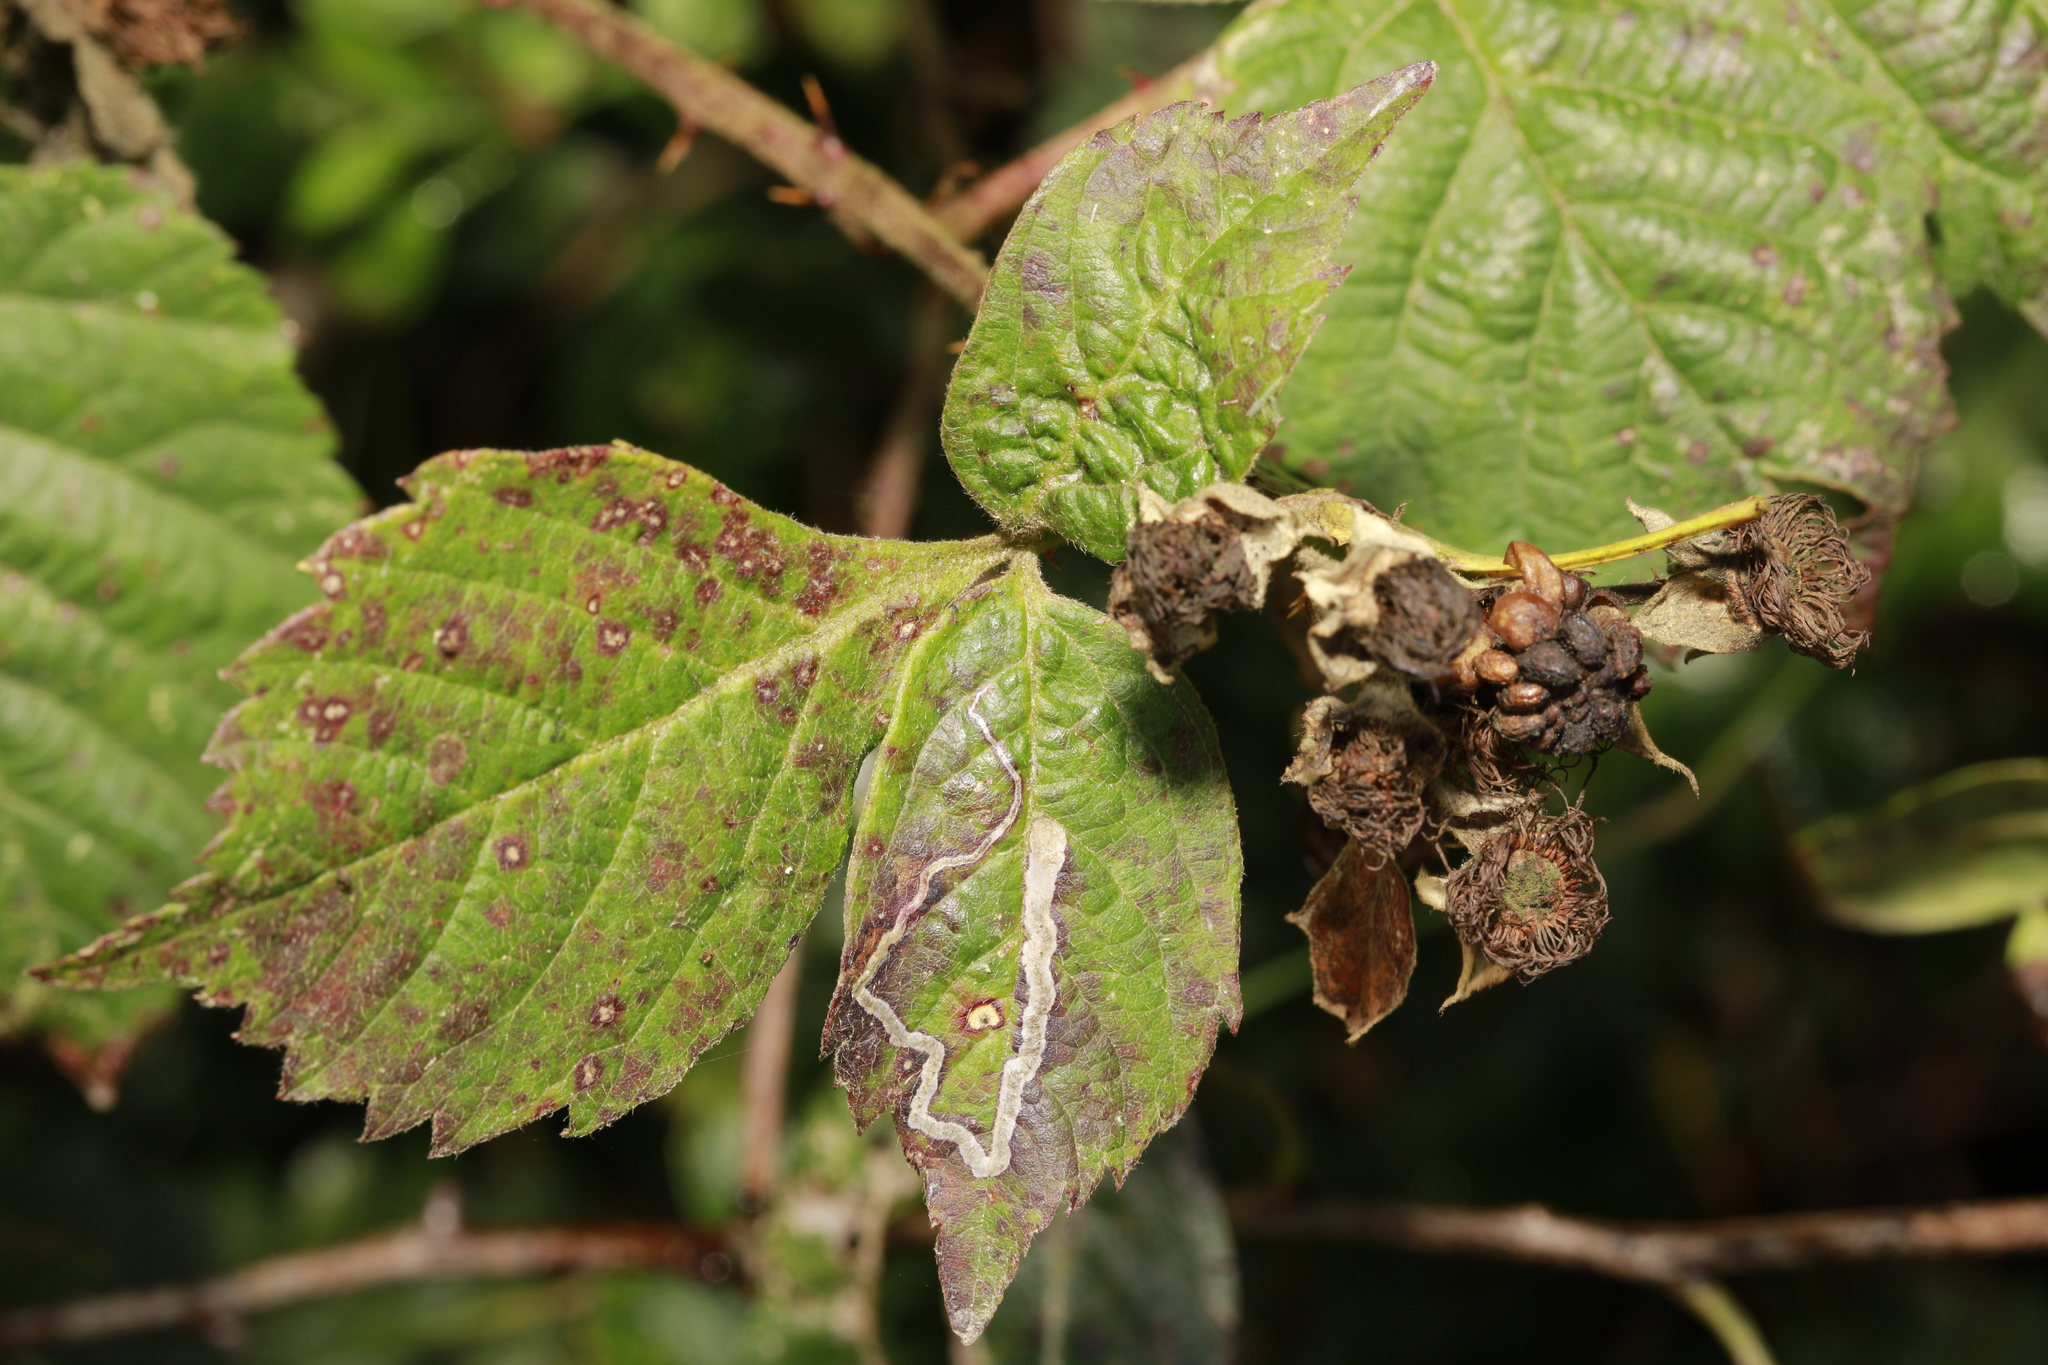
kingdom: Animalia
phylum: Arthropoda
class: Insecta
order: Lepidoptera
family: Nepticulidae
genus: Stigmella
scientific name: Stigmella aurella
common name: Golden pigmy
